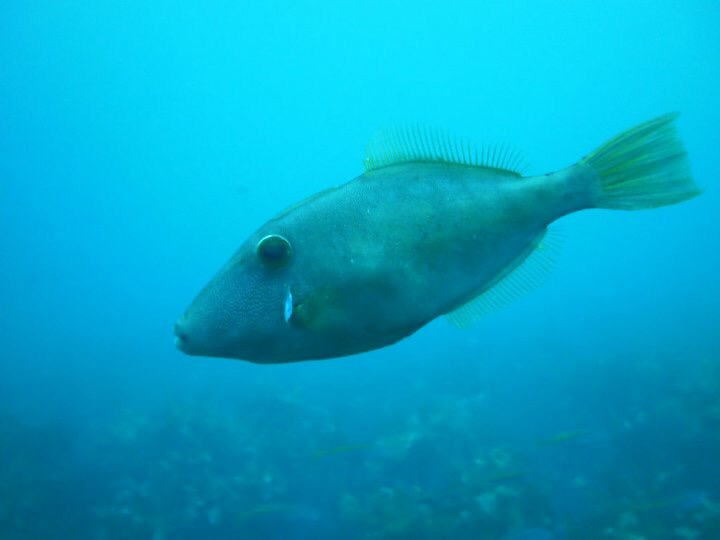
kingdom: Animalia
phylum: Chordata
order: Tetraodontiformes
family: Monacanthidae
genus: Meuschenia
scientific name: Meuschenia scaber
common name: Cosmopolitan leatherjacket
